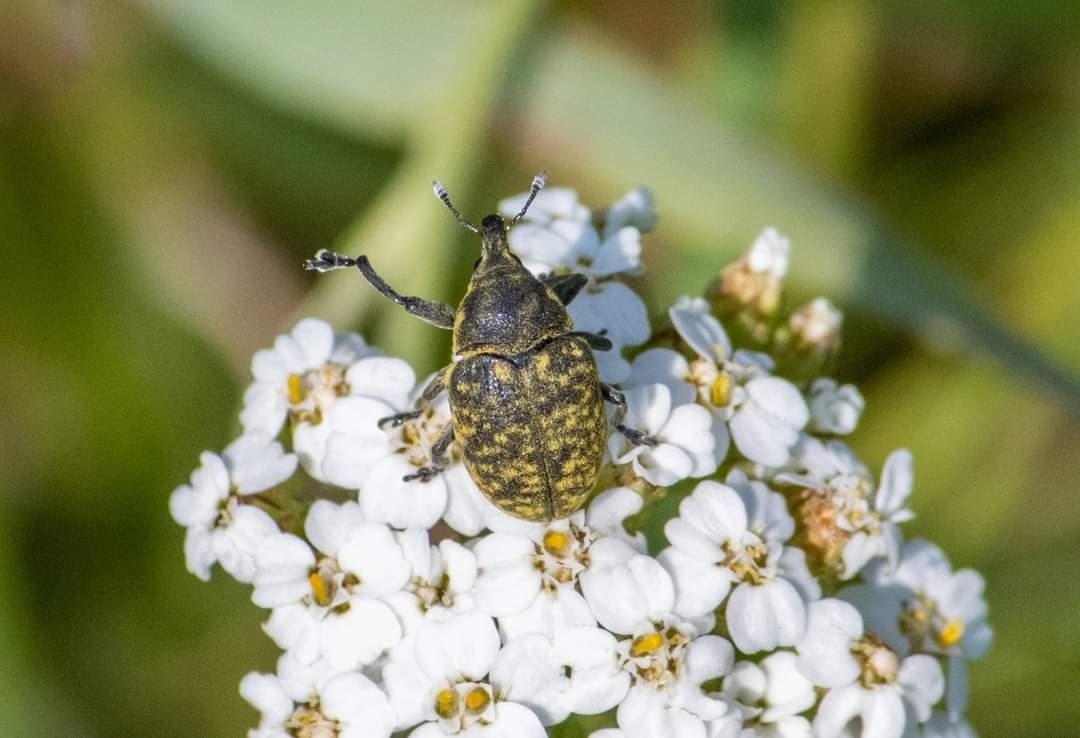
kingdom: Animalia
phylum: Arthropoda
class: Insecta
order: Coleoptera
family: Curculionidae
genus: Larinus
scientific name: Larinus turbinatus
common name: Weevil
